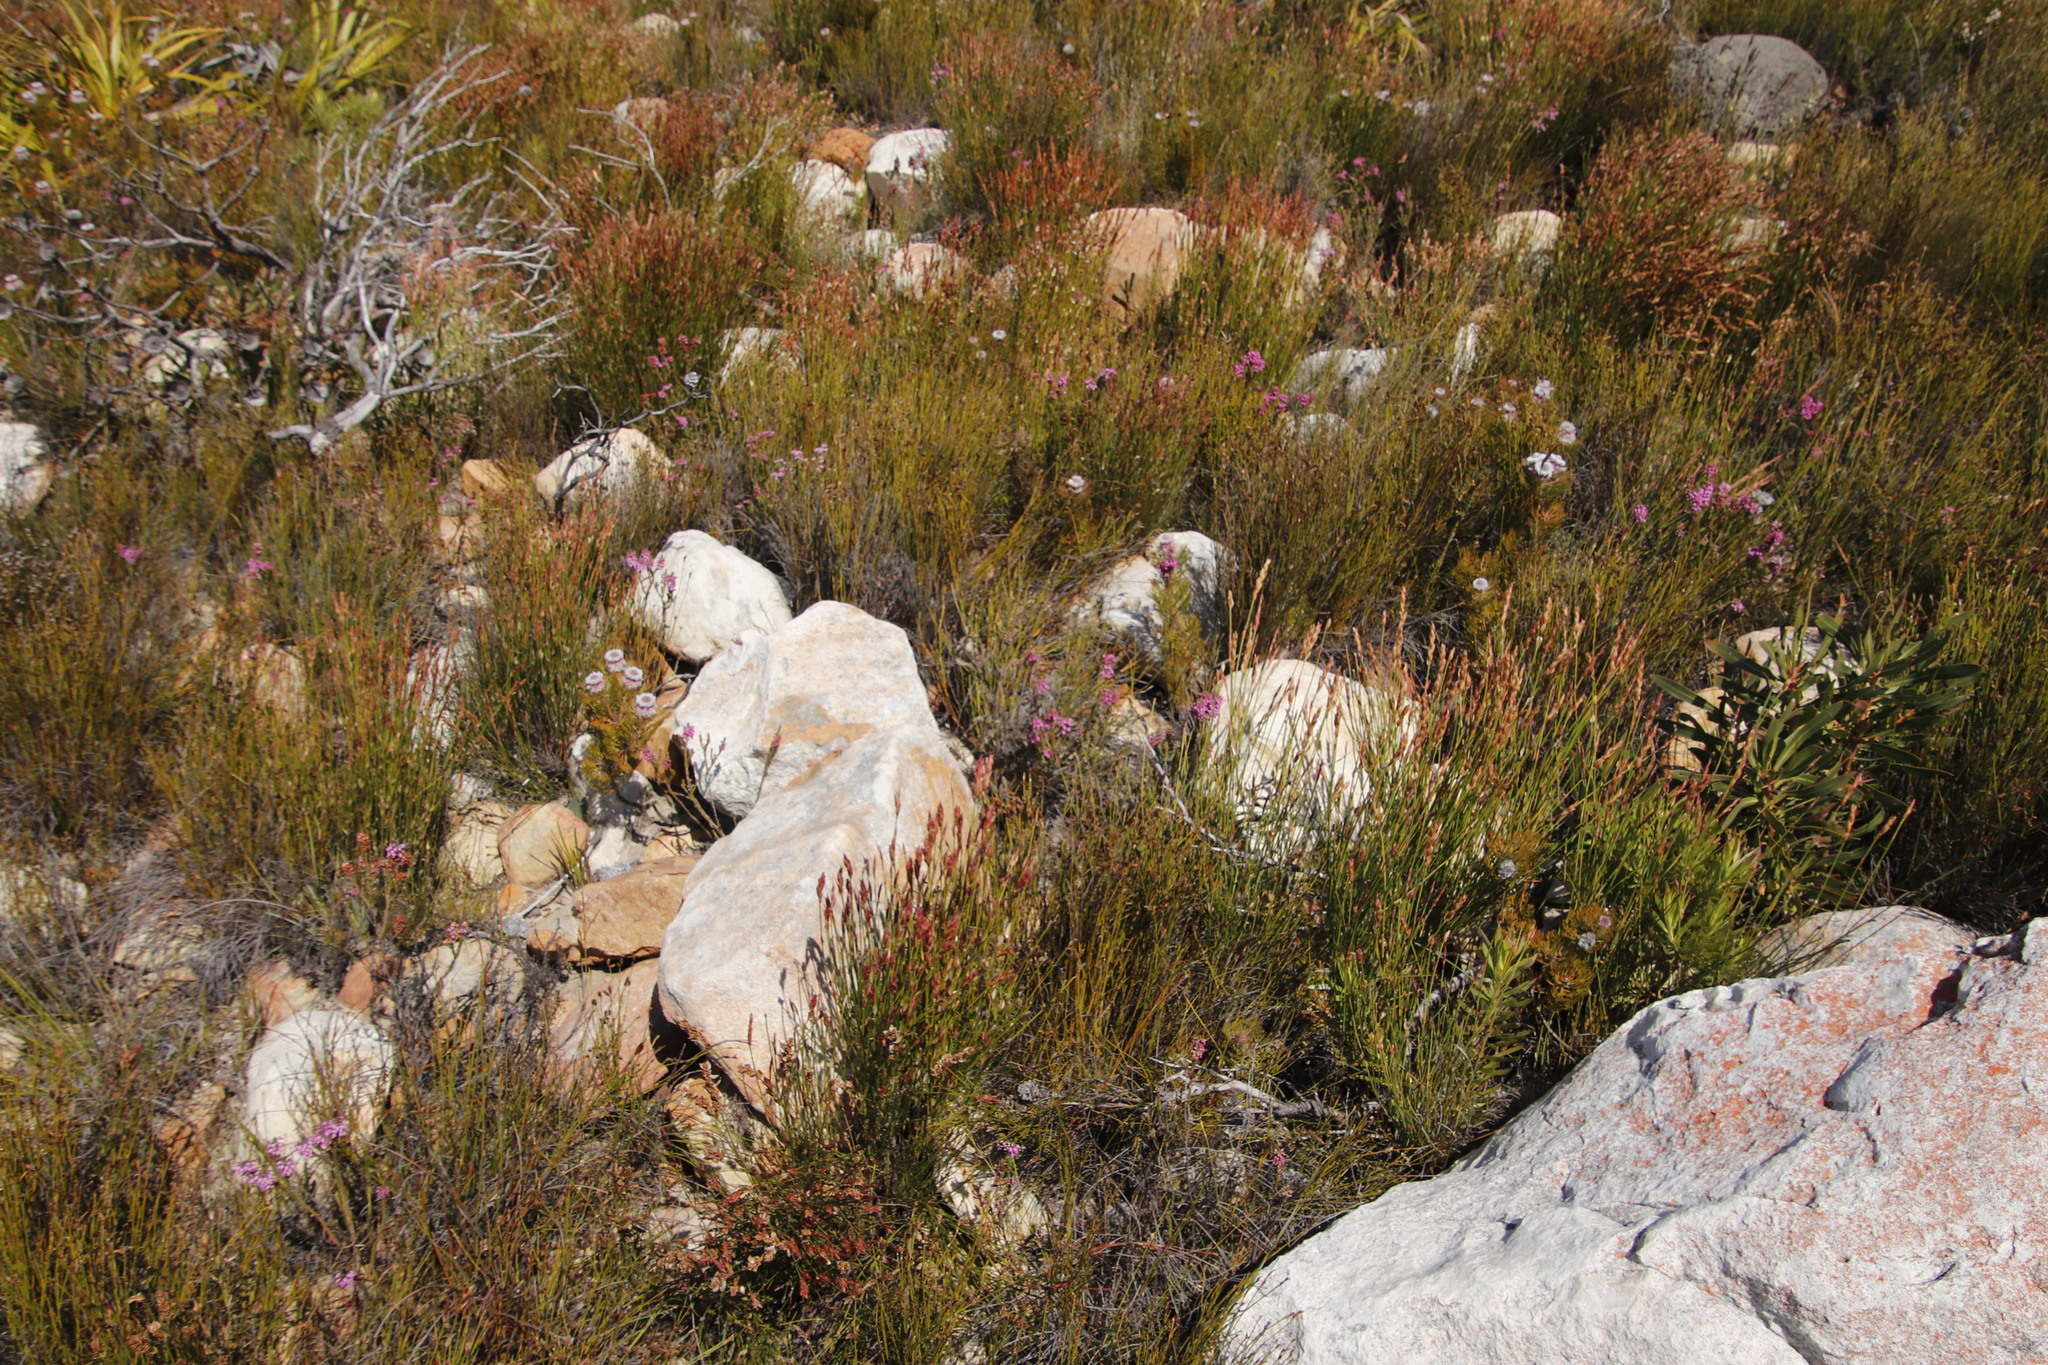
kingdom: Plantae
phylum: Tracheophyta
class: Magnoliopsida
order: Ericales
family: Ericaceae
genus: Erica
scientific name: Erica pulchella
